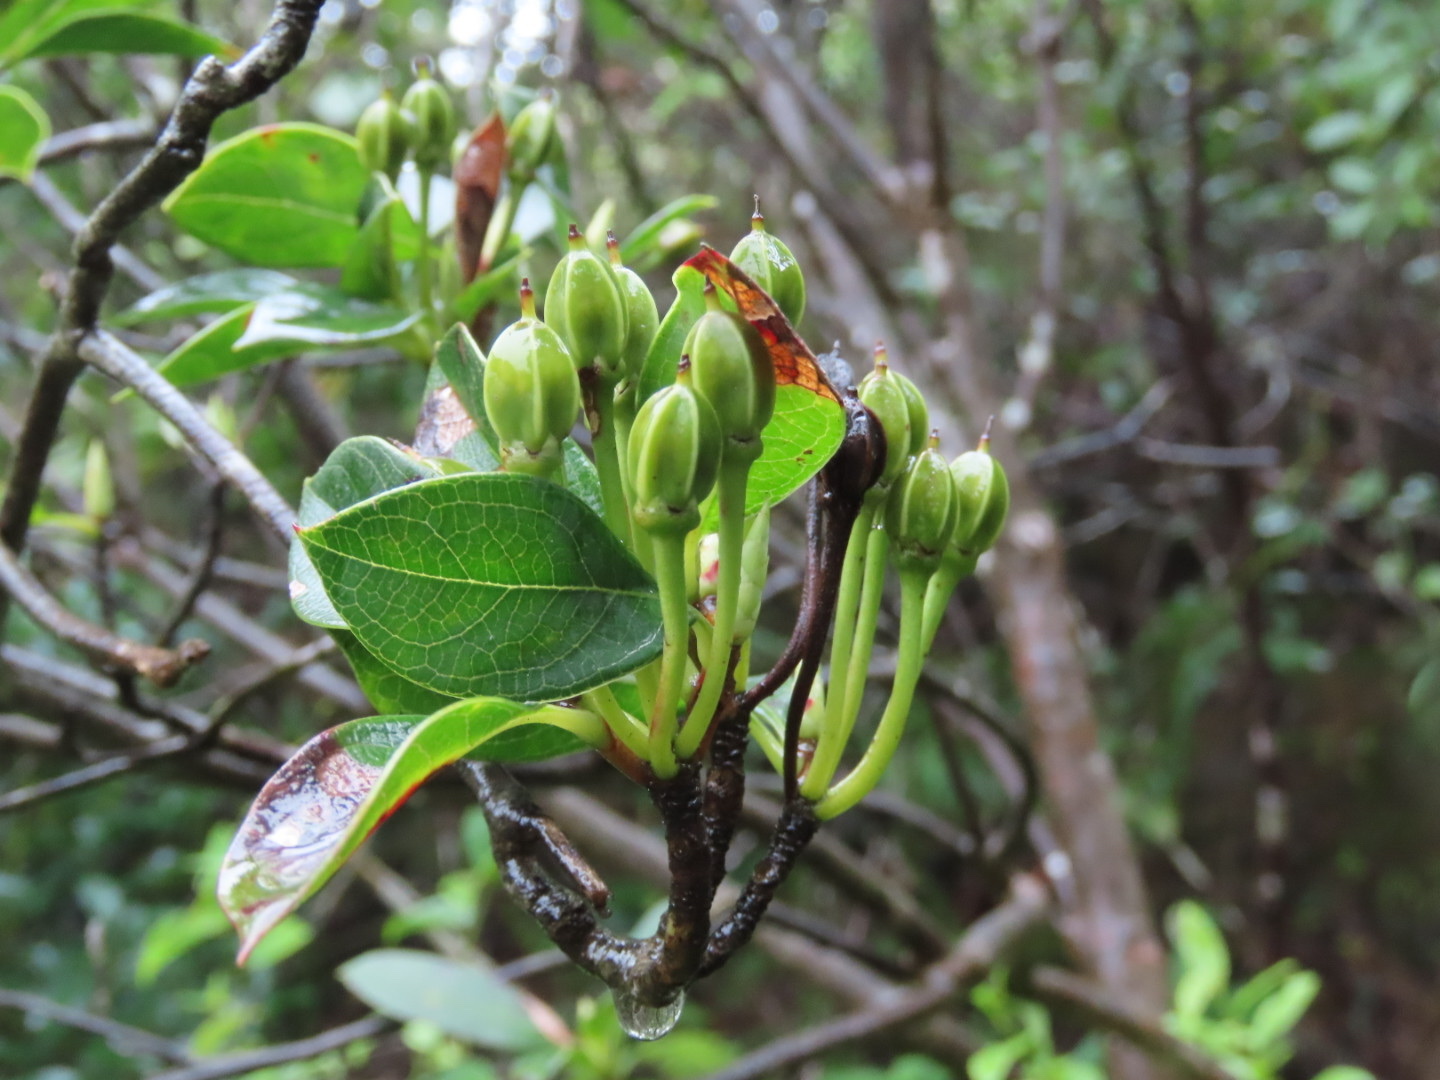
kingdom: Plantae
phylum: Tracheophyta
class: Magnoliopsida
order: Ericales
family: Ericaceae
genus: Enkianthus
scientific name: Enkianthus quinqueflorus
